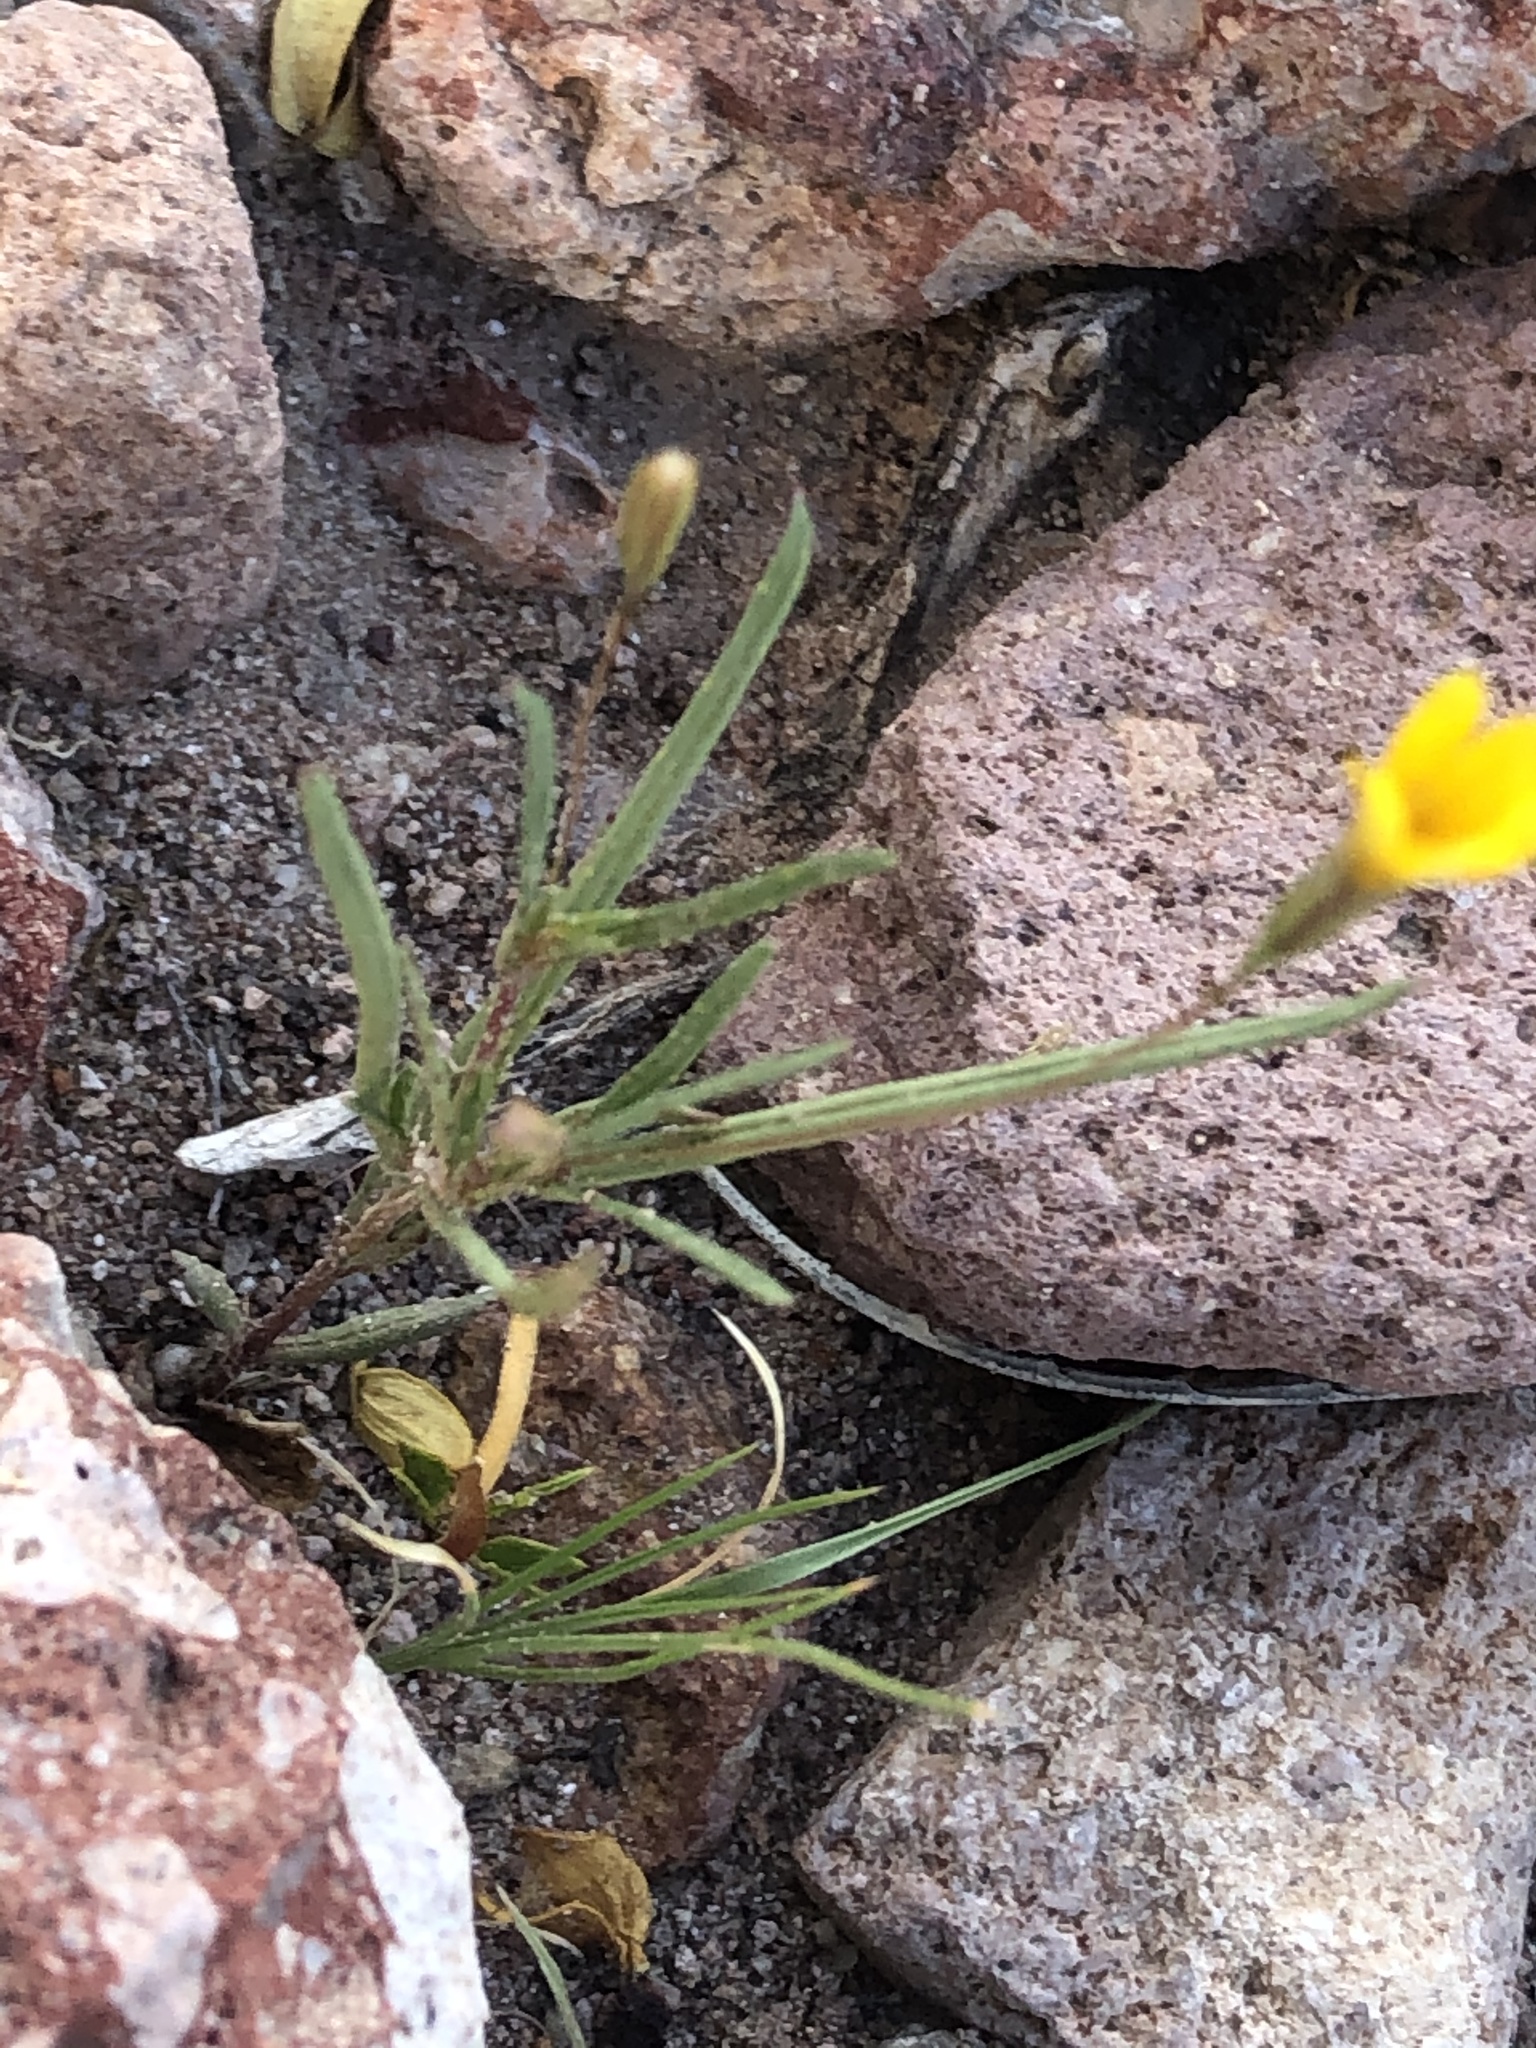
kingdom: Plantae
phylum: Tracheophyta
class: Magnoliopsida
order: Asterales
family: Asteraceae
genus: Pectis
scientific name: Pectis filipes
